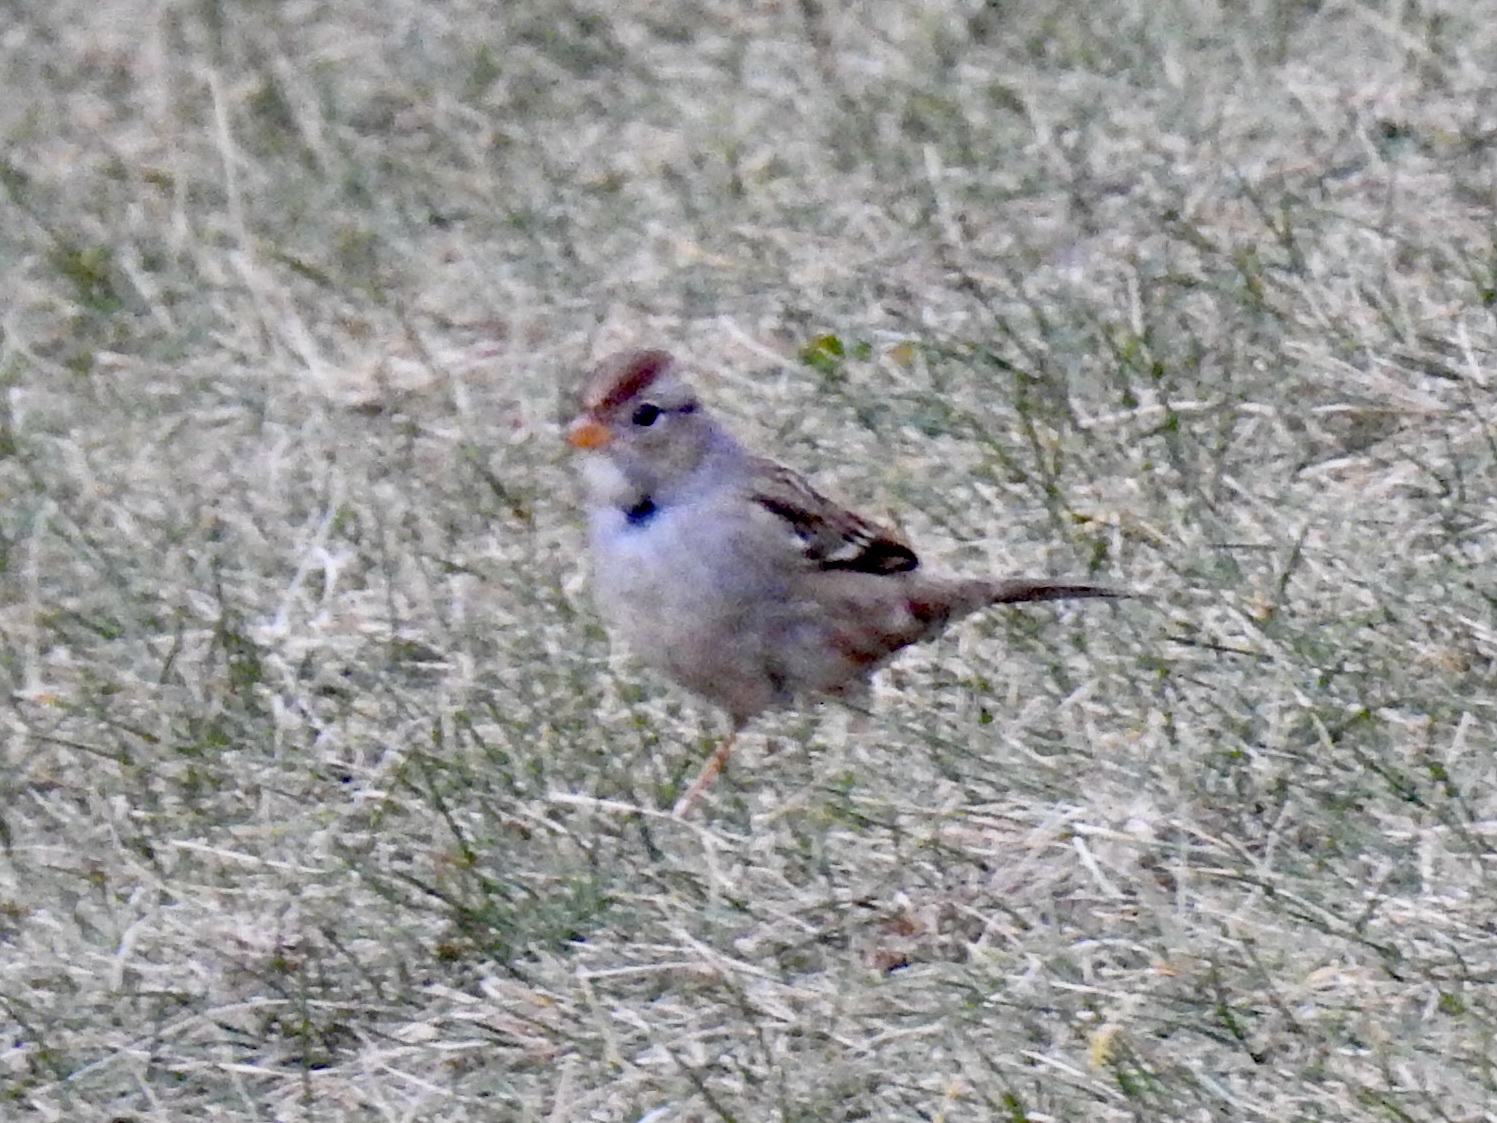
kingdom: Animalia
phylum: Chordata
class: Aves
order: Passeriformes
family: Passerellidae
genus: Zonotrichia
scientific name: Zonotrichia leucophrys
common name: White-crowned sparrow
